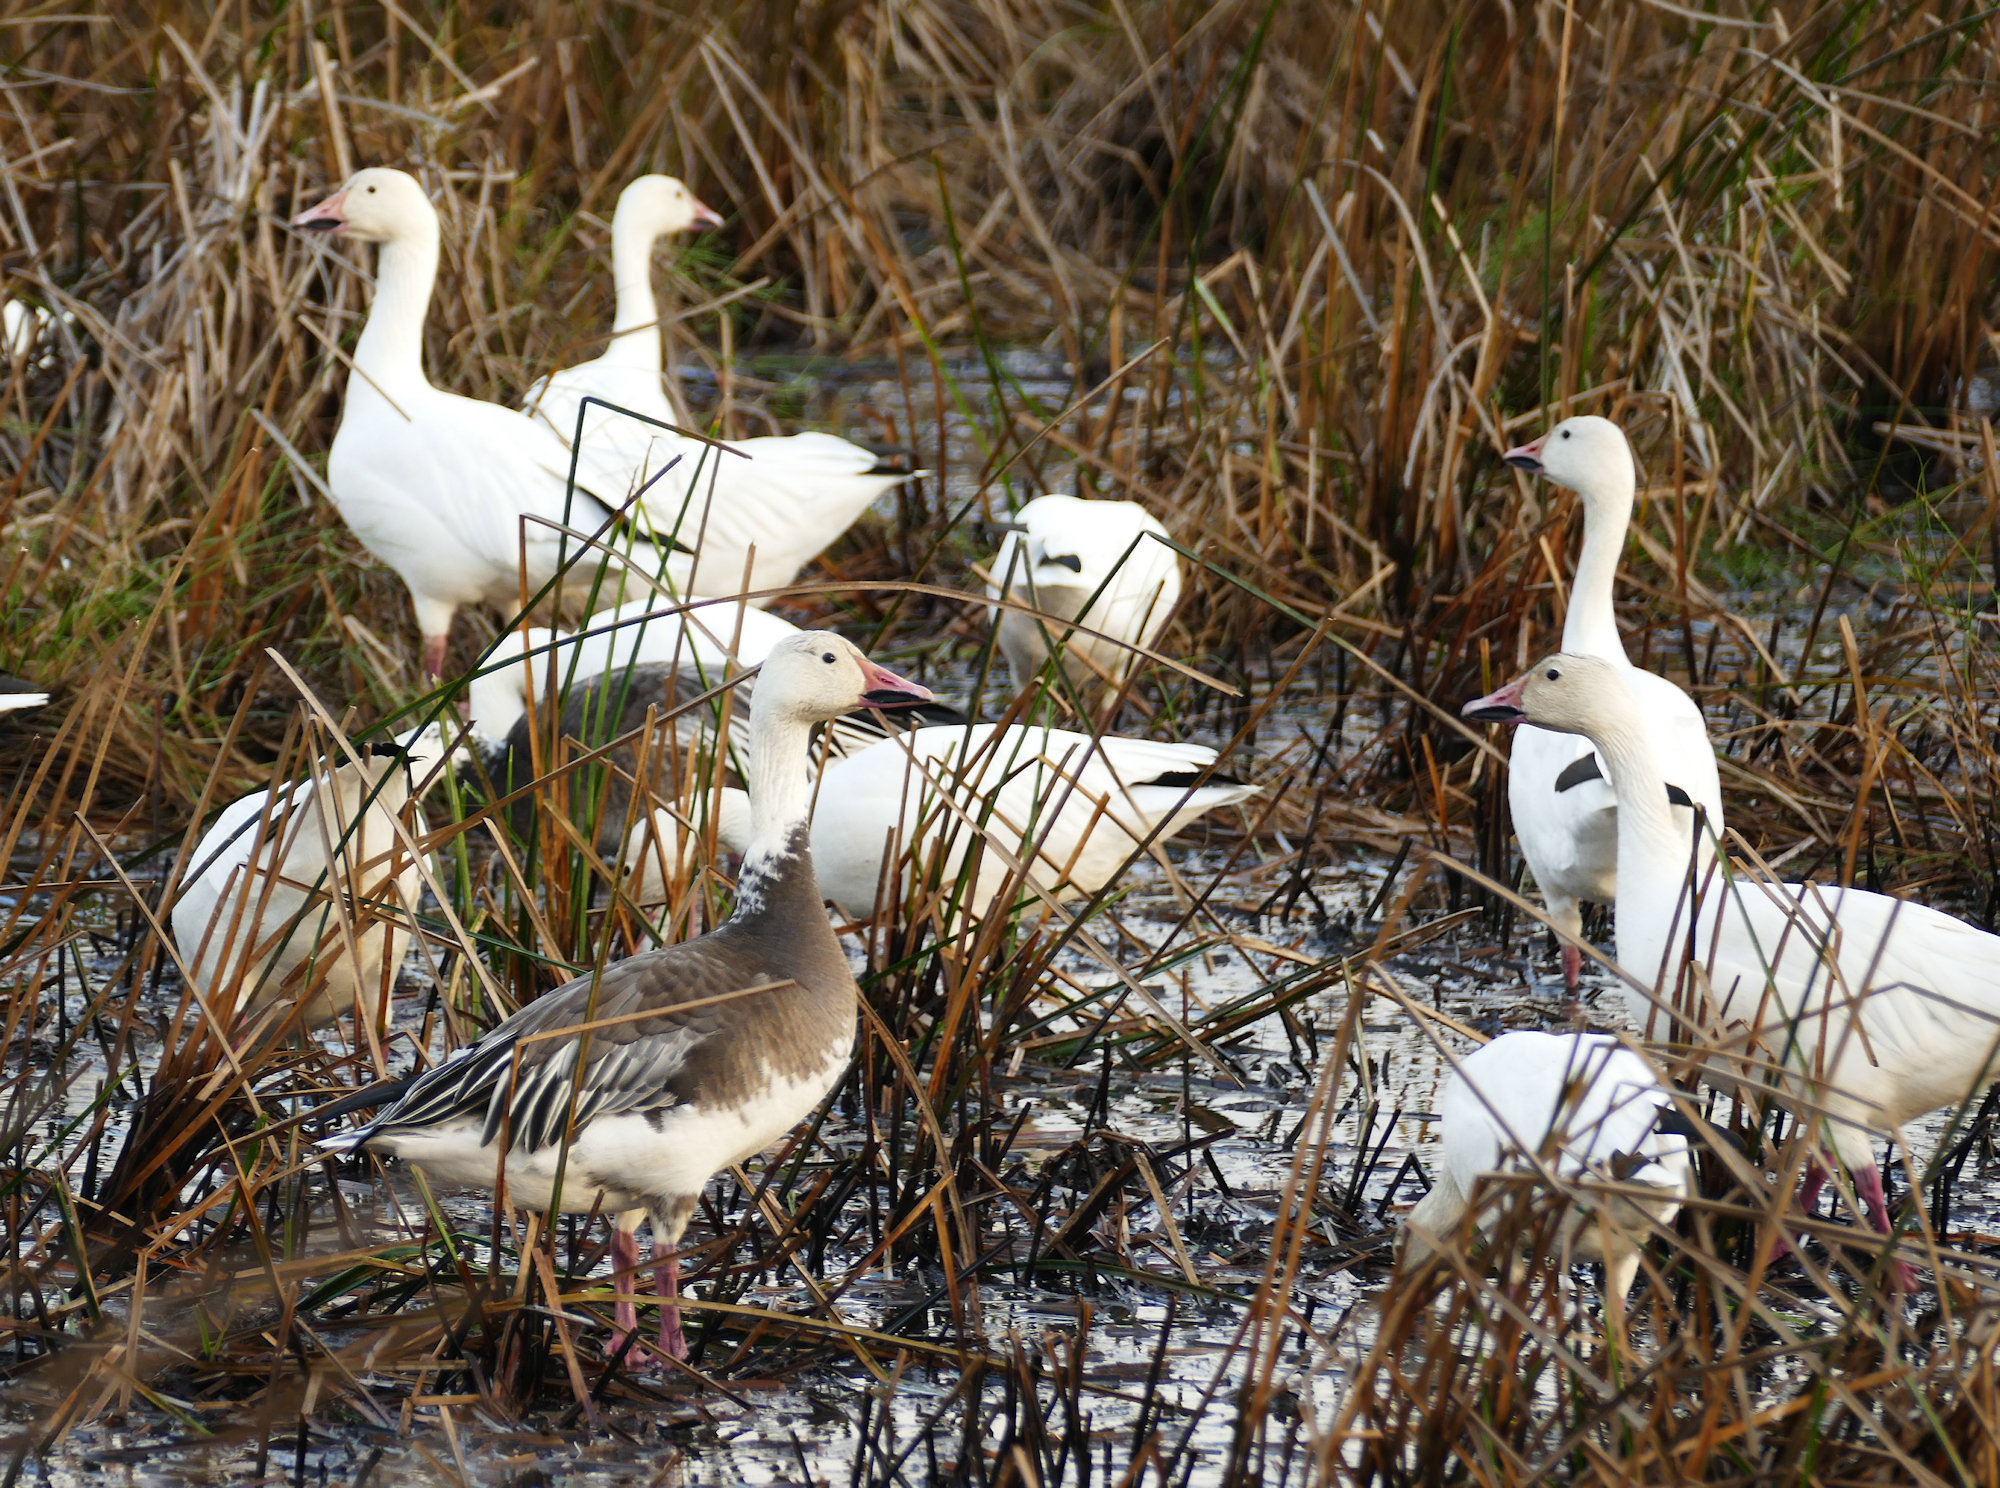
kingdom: Animalia
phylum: Chordata
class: Aves
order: Anseriformes
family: Anatidae
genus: Anser
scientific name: Anser caerulescens
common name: Snow goose
